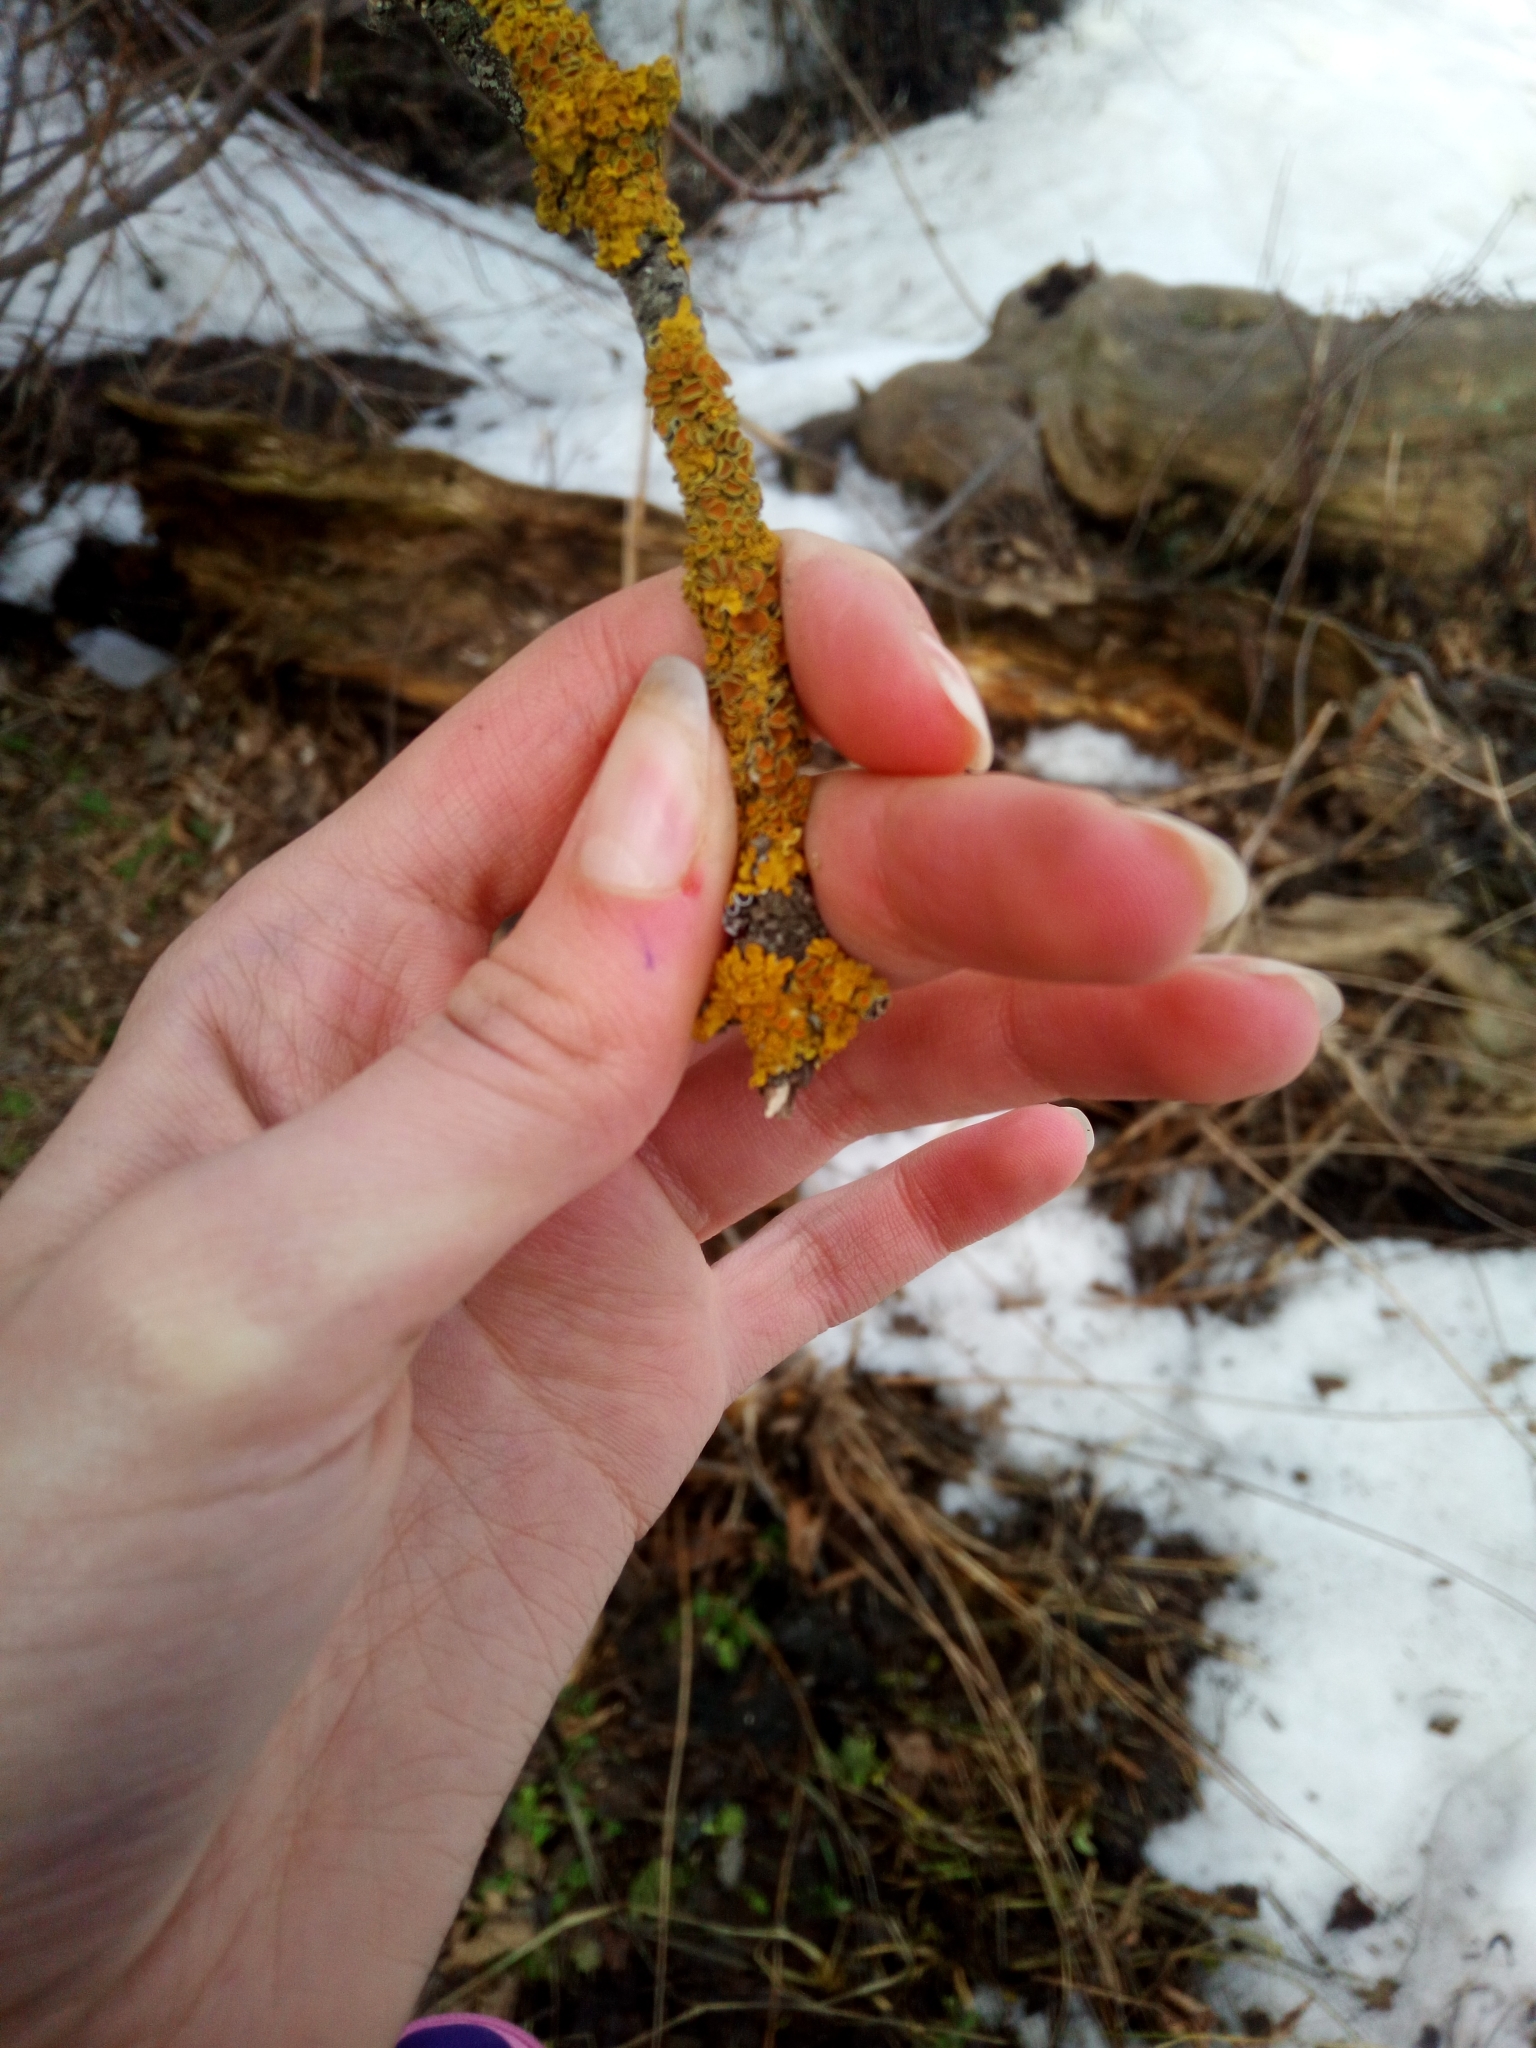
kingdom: Fungi
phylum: Ascomycota
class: Lecanoromycetes
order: Teloschistales
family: Teloschistaceae
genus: Xanthoria
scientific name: Xanthoria parietina
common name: Common orange lichen
